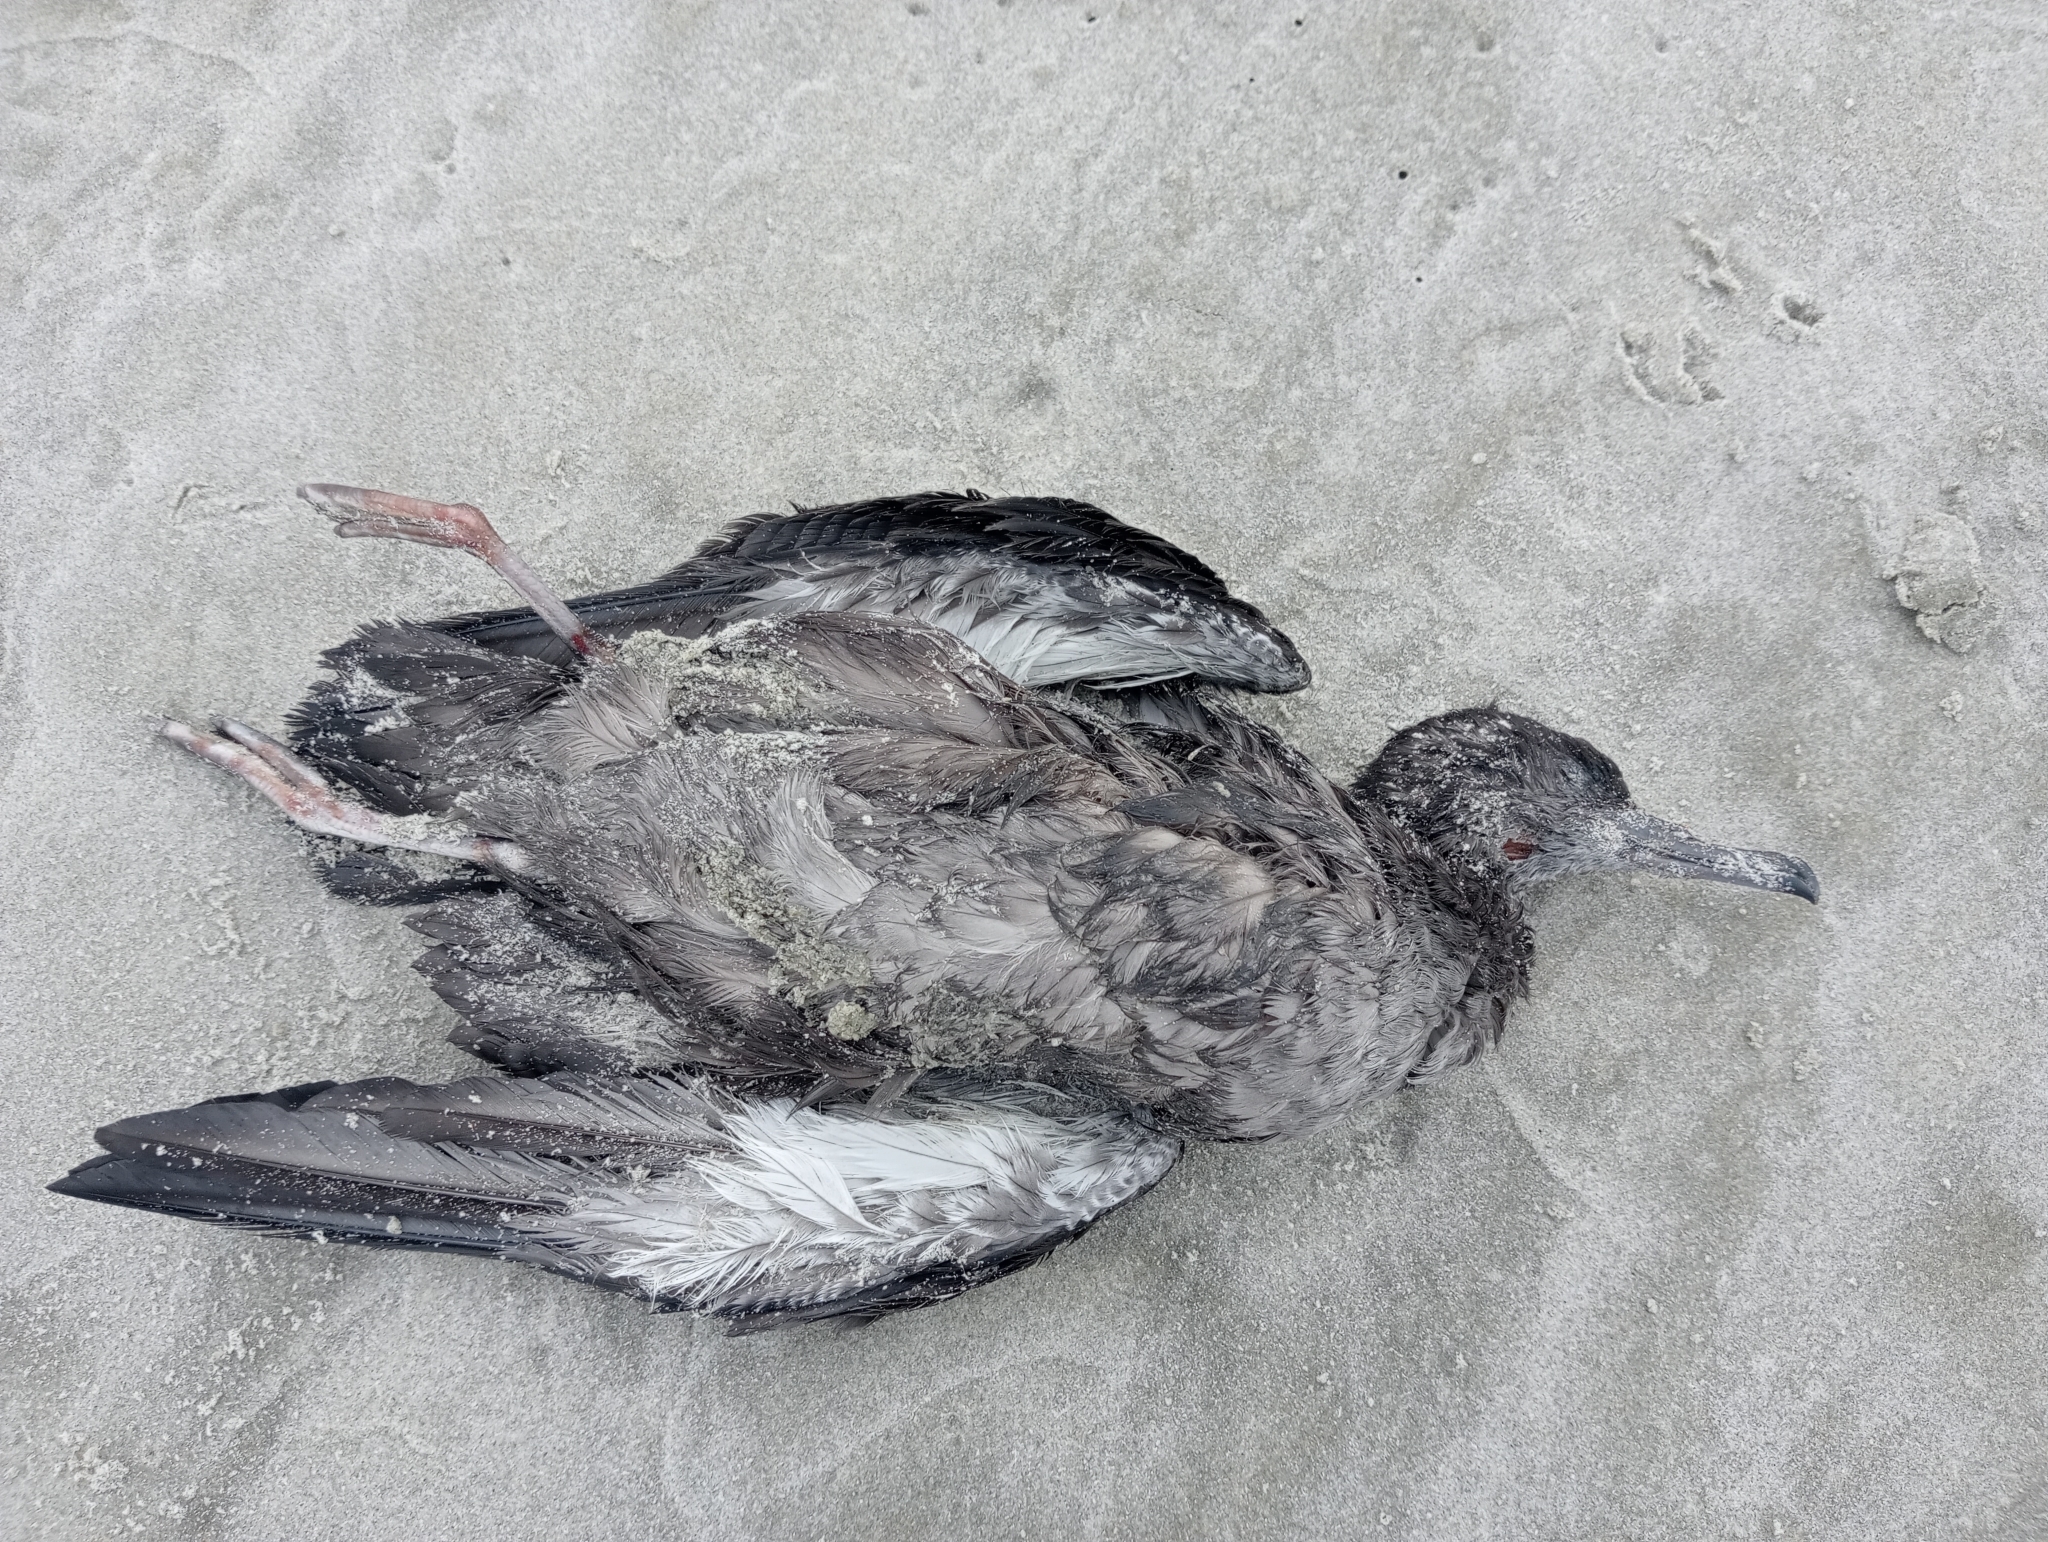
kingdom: Animalia
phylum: Chordata
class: Aves
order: Procellariiformes
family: Procellariidae
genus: Puffinus
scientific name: Puffinus griseus
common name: Sooty shearwater
